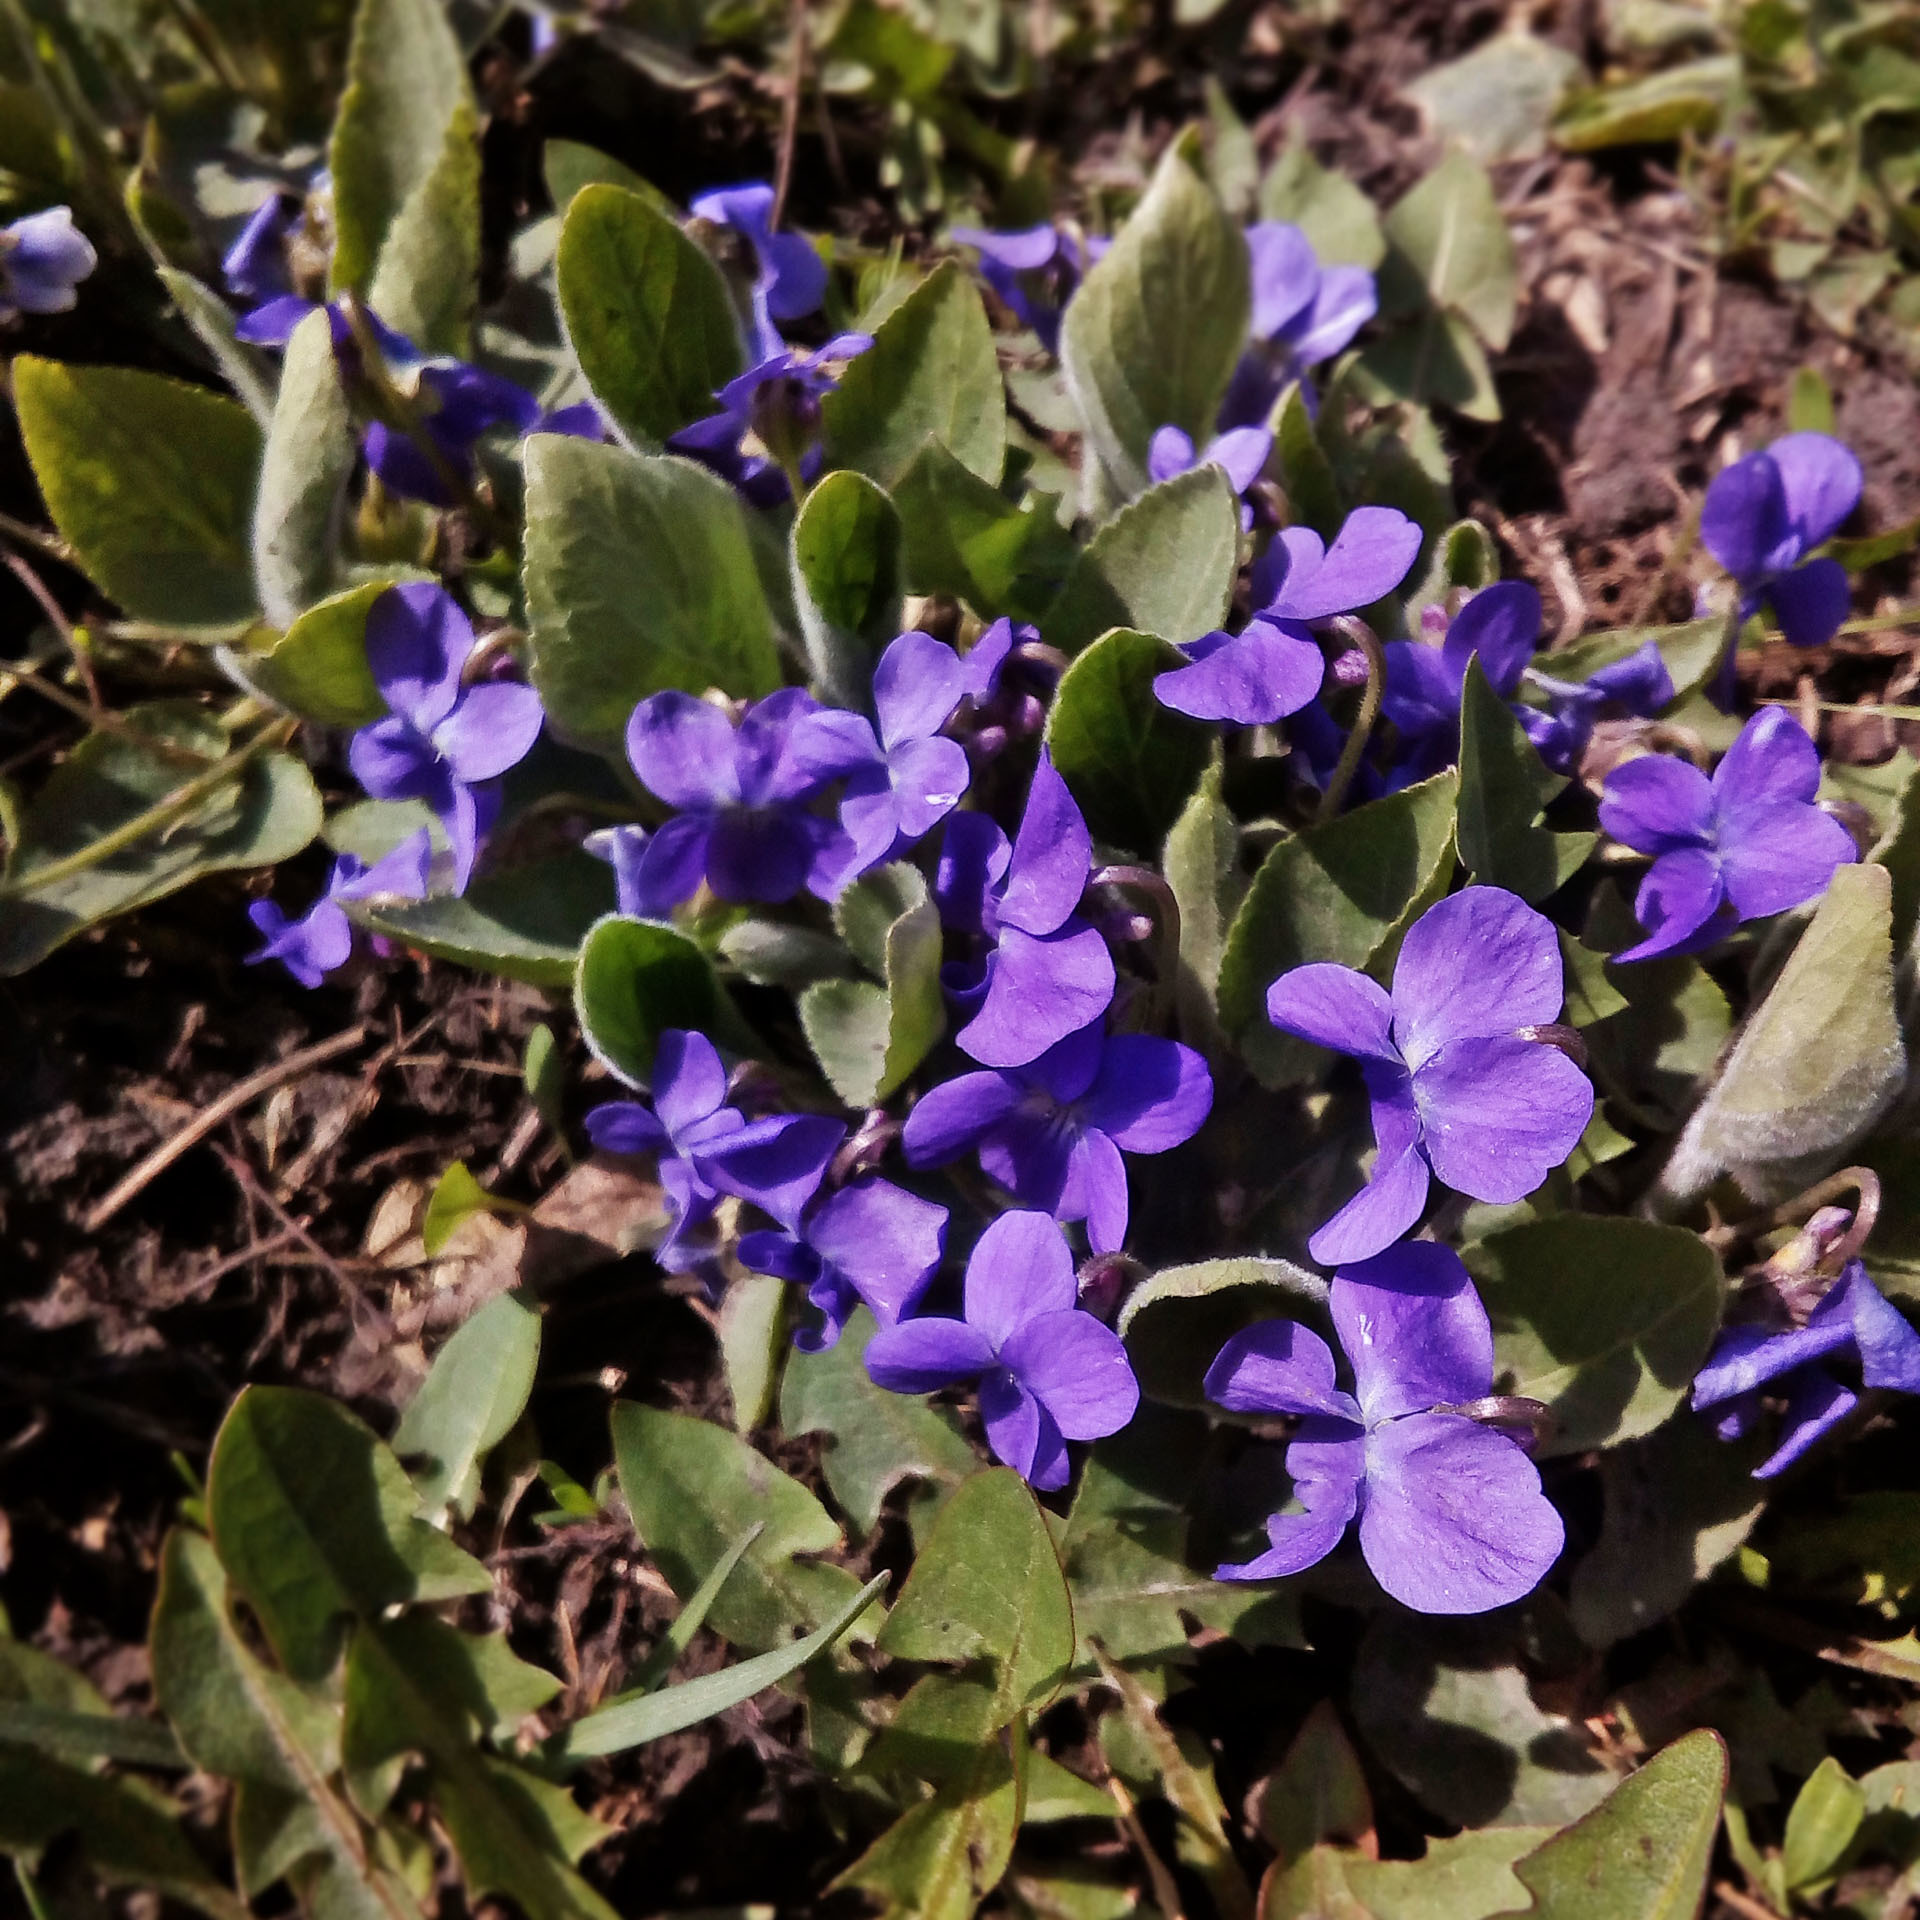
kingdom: Plantae
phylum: Tracheophyta
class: Magnoliopsida
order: Malpighiales
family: Violaceae
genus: Viola
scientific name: Viola hirta
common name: Hairy violet
